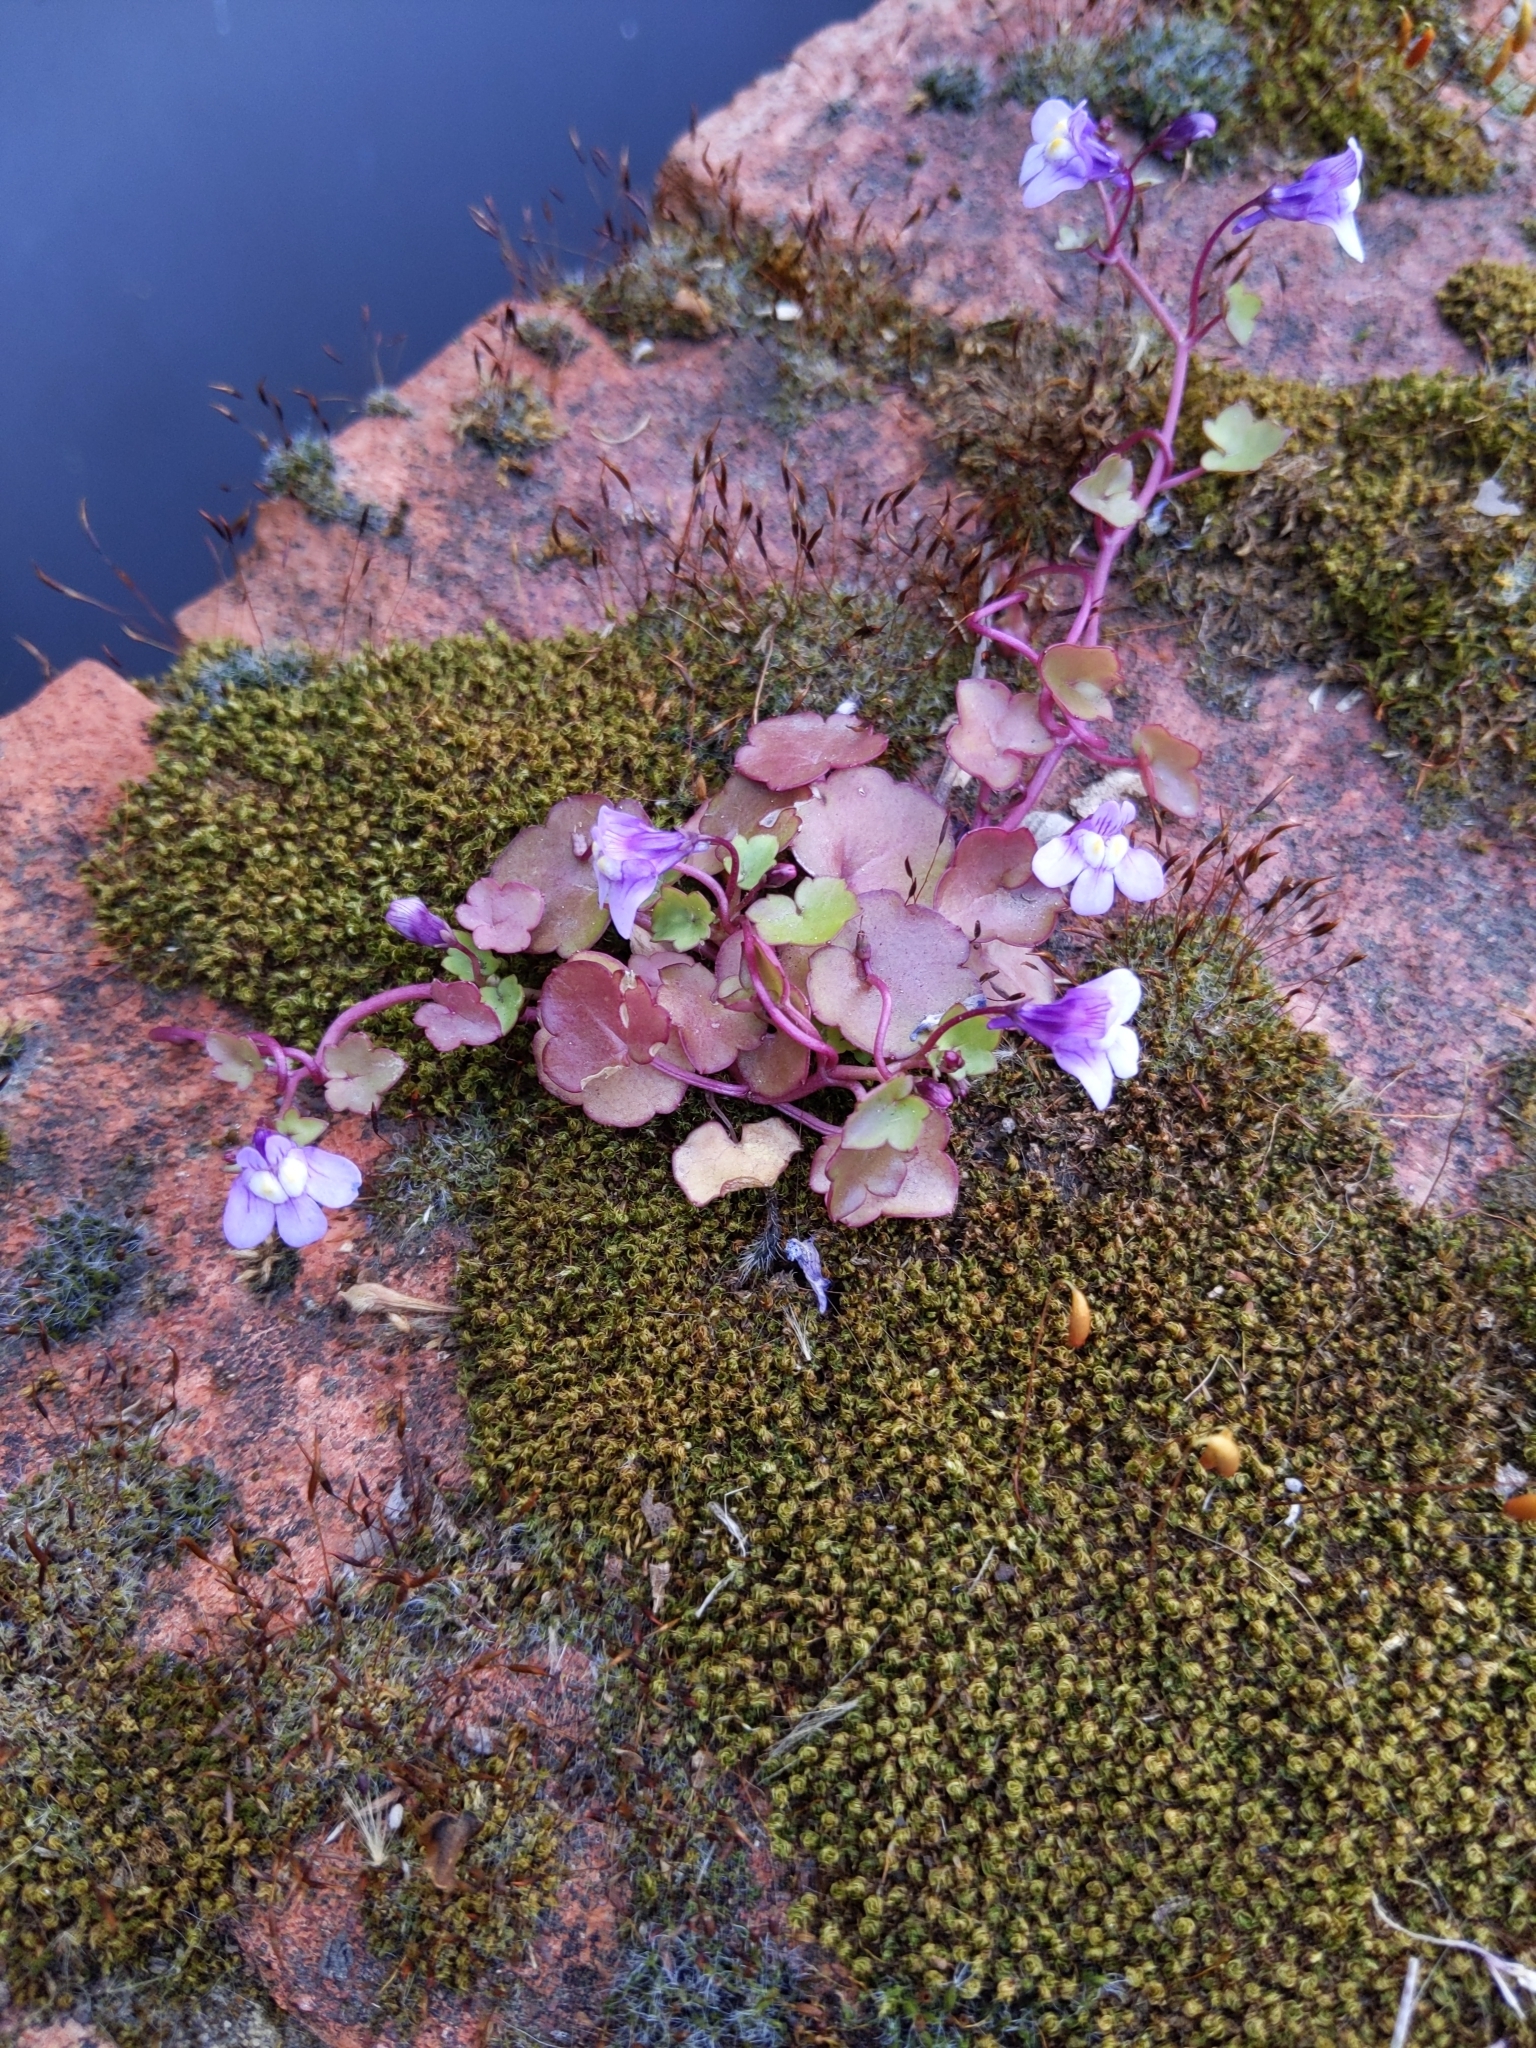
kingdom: Plantae
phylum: Tracheophyta
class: Magnoliopsida
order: Lamiales
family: Plantaginaceae
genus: Cymbalaria
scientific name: Cymbalaria muralis
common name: Ivy-leaved toadflax
